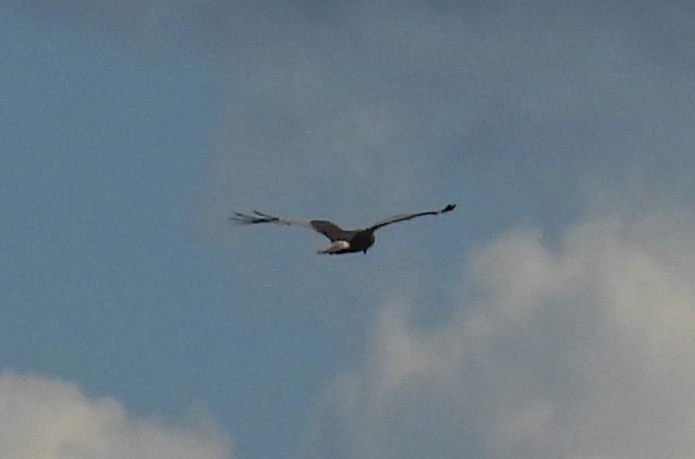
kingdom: Animalia
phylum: Chordata
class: Aves
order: Accipitriformes
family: Accipitridae
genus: Circus
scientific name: Circus aeruginosus
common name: Western marsh harrier
